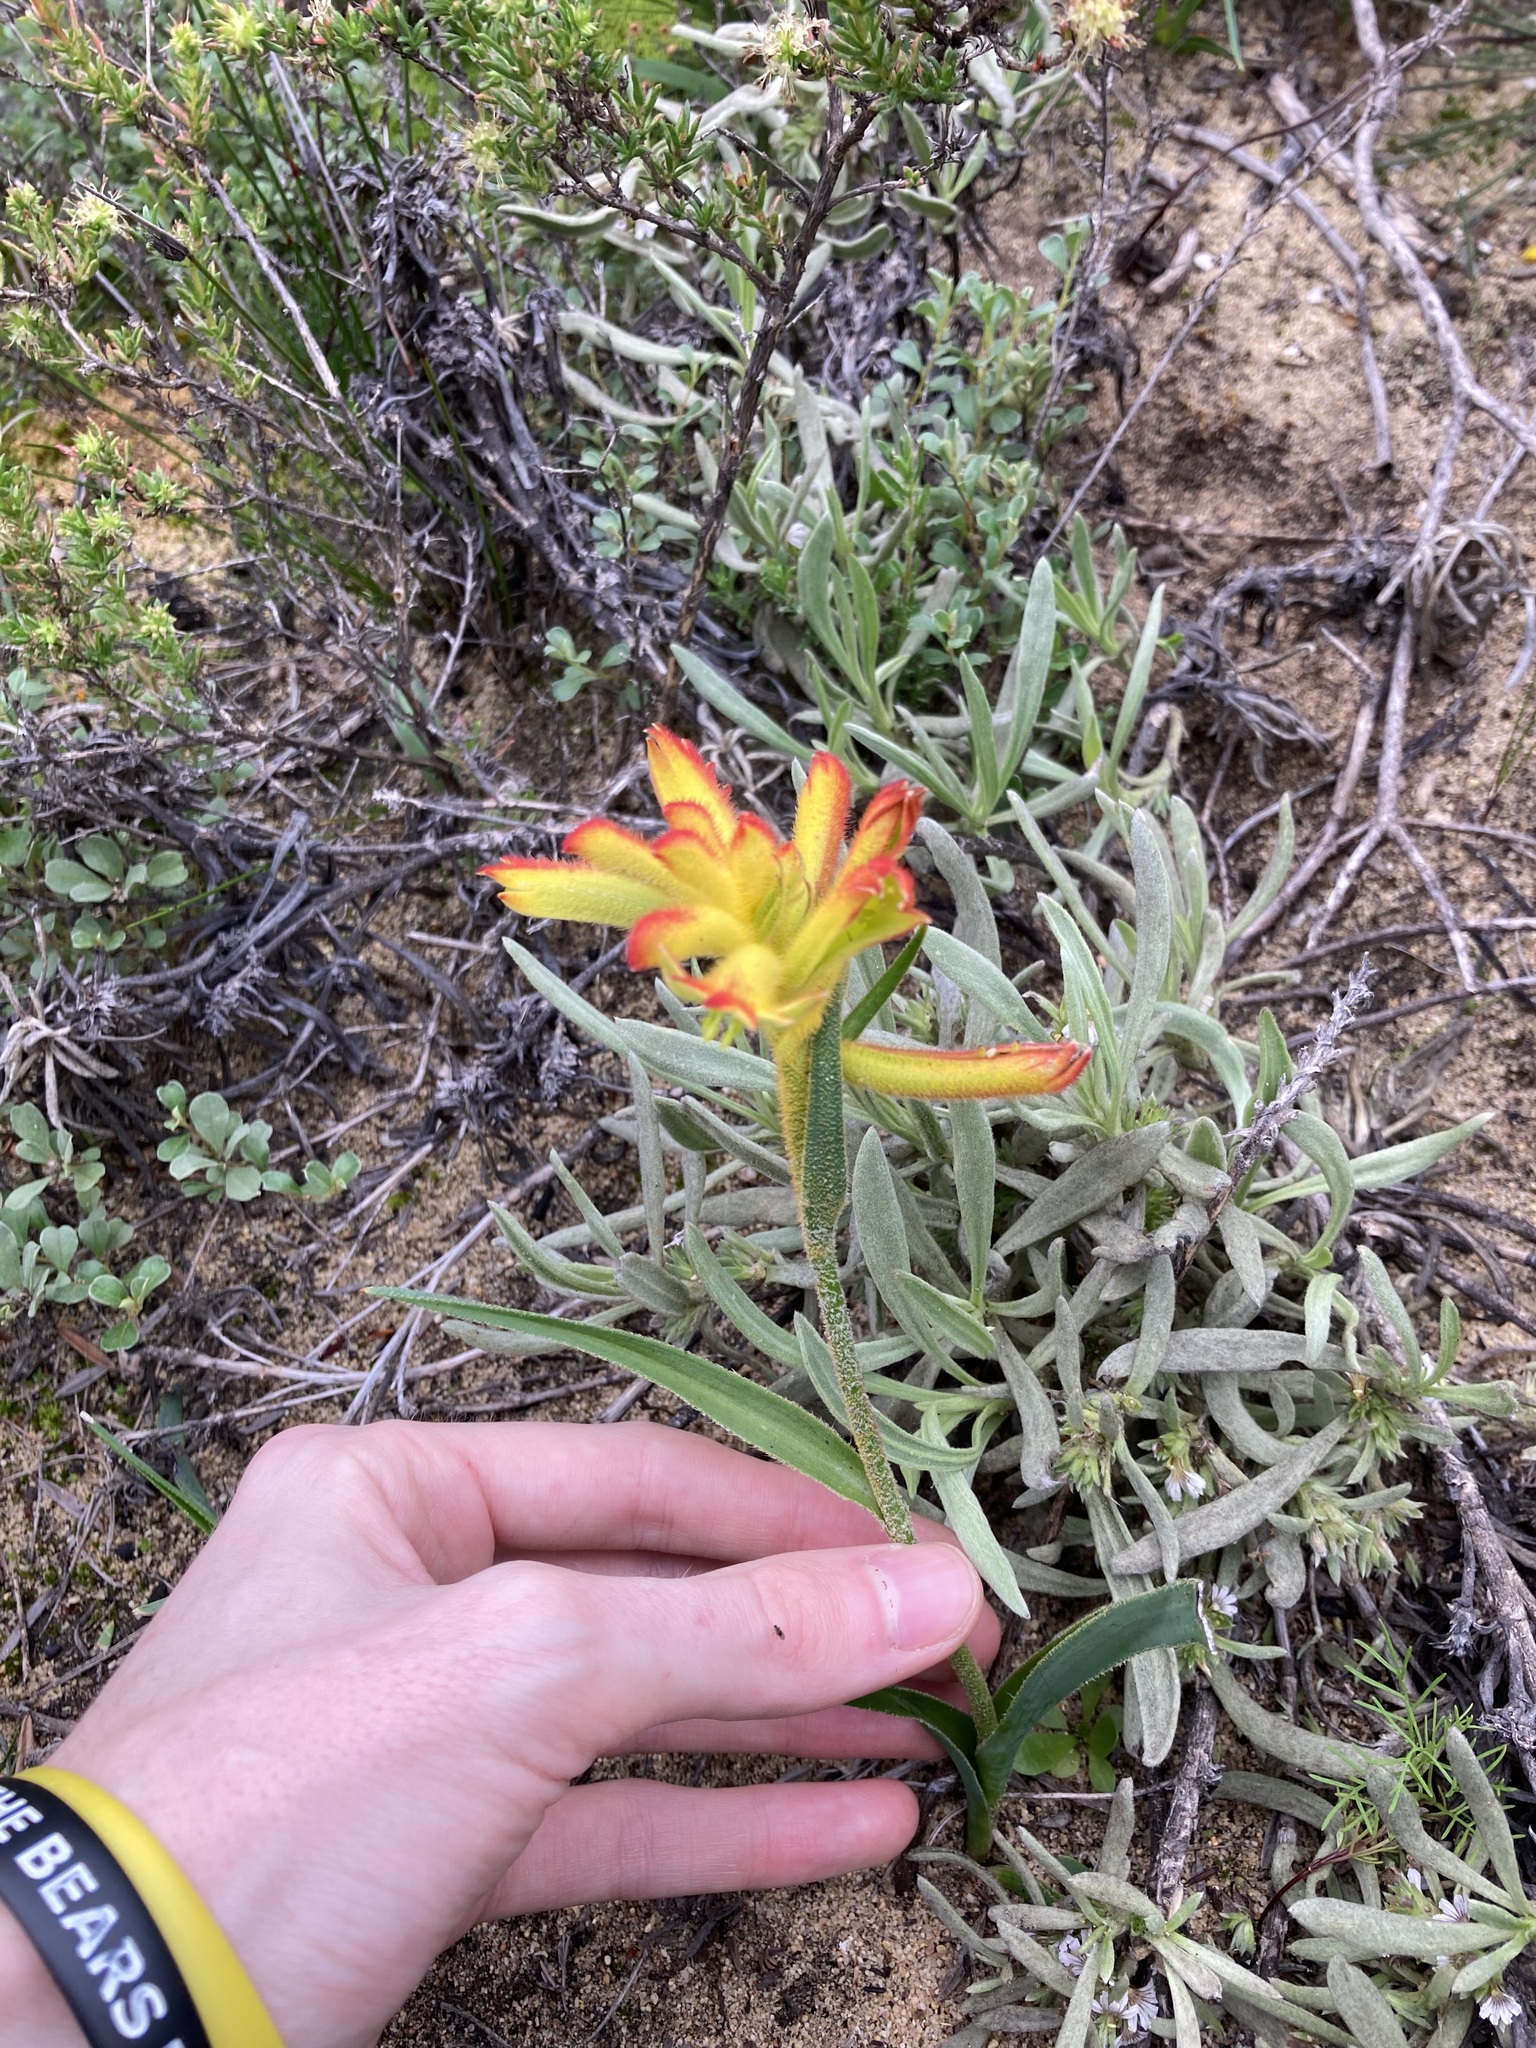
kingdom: Plantae
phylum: Tracheophyta
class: Liliopsida
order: Commelinales
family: Haemodoraceae
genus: Anigozanthos
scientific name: Anigozanthos humilis
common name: Cat's-paw
